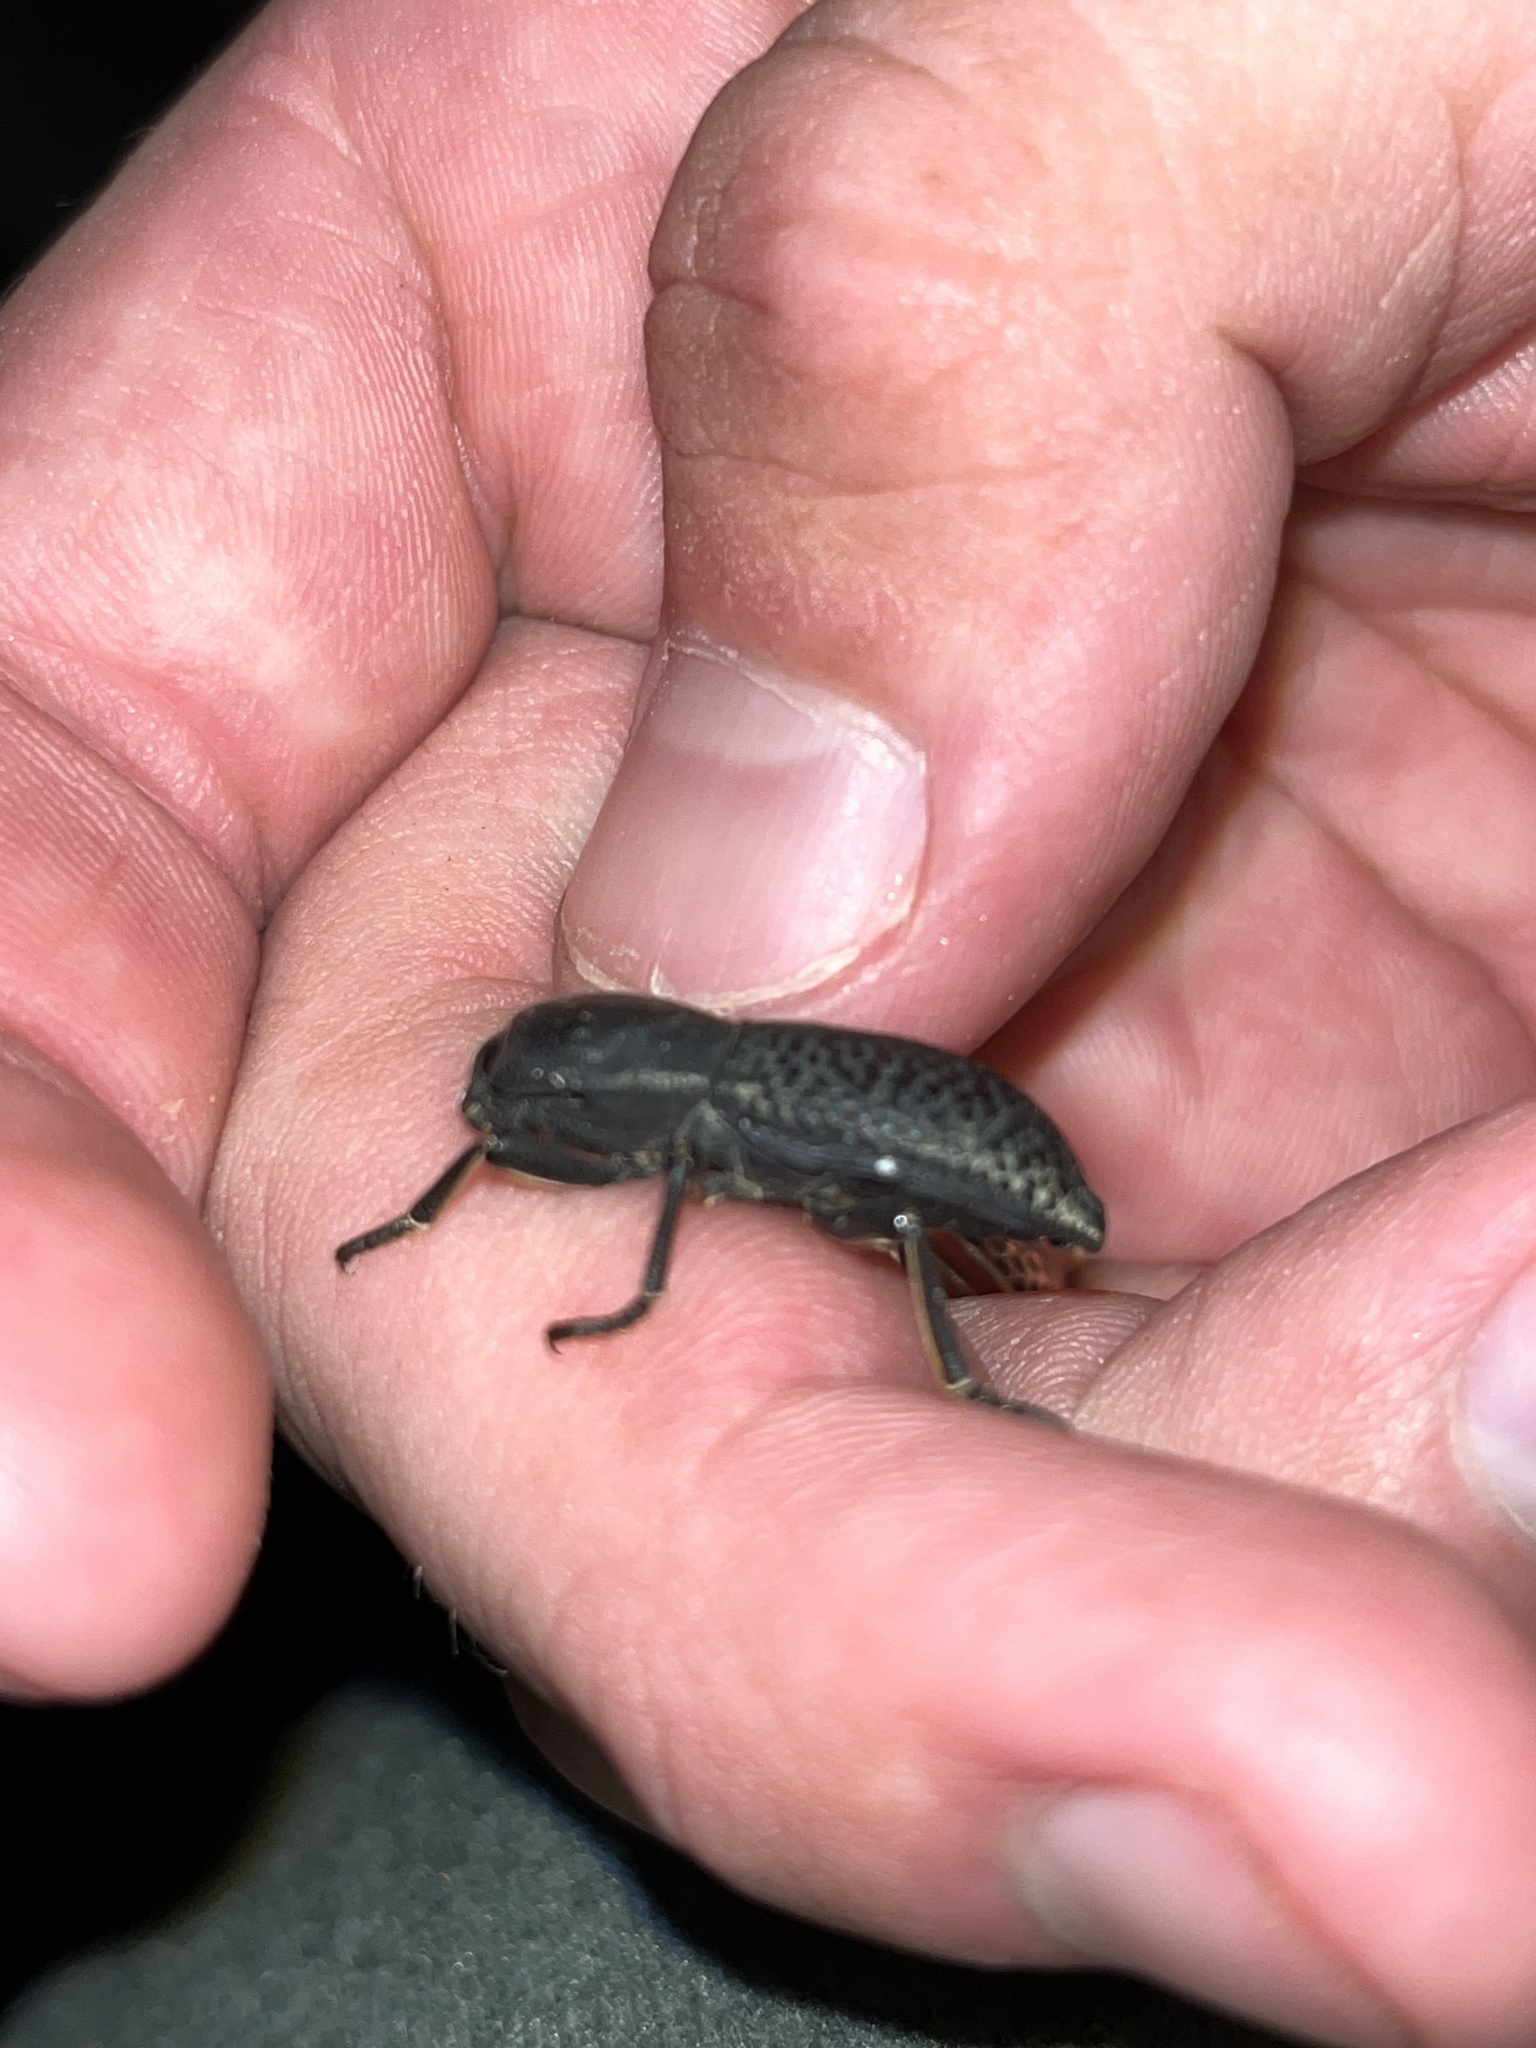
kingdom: Animalia
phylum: Arthropoda
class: Insecta
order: Coleoptera
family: Zopheridae
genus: Zopherus
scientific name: Zopherus concolor
